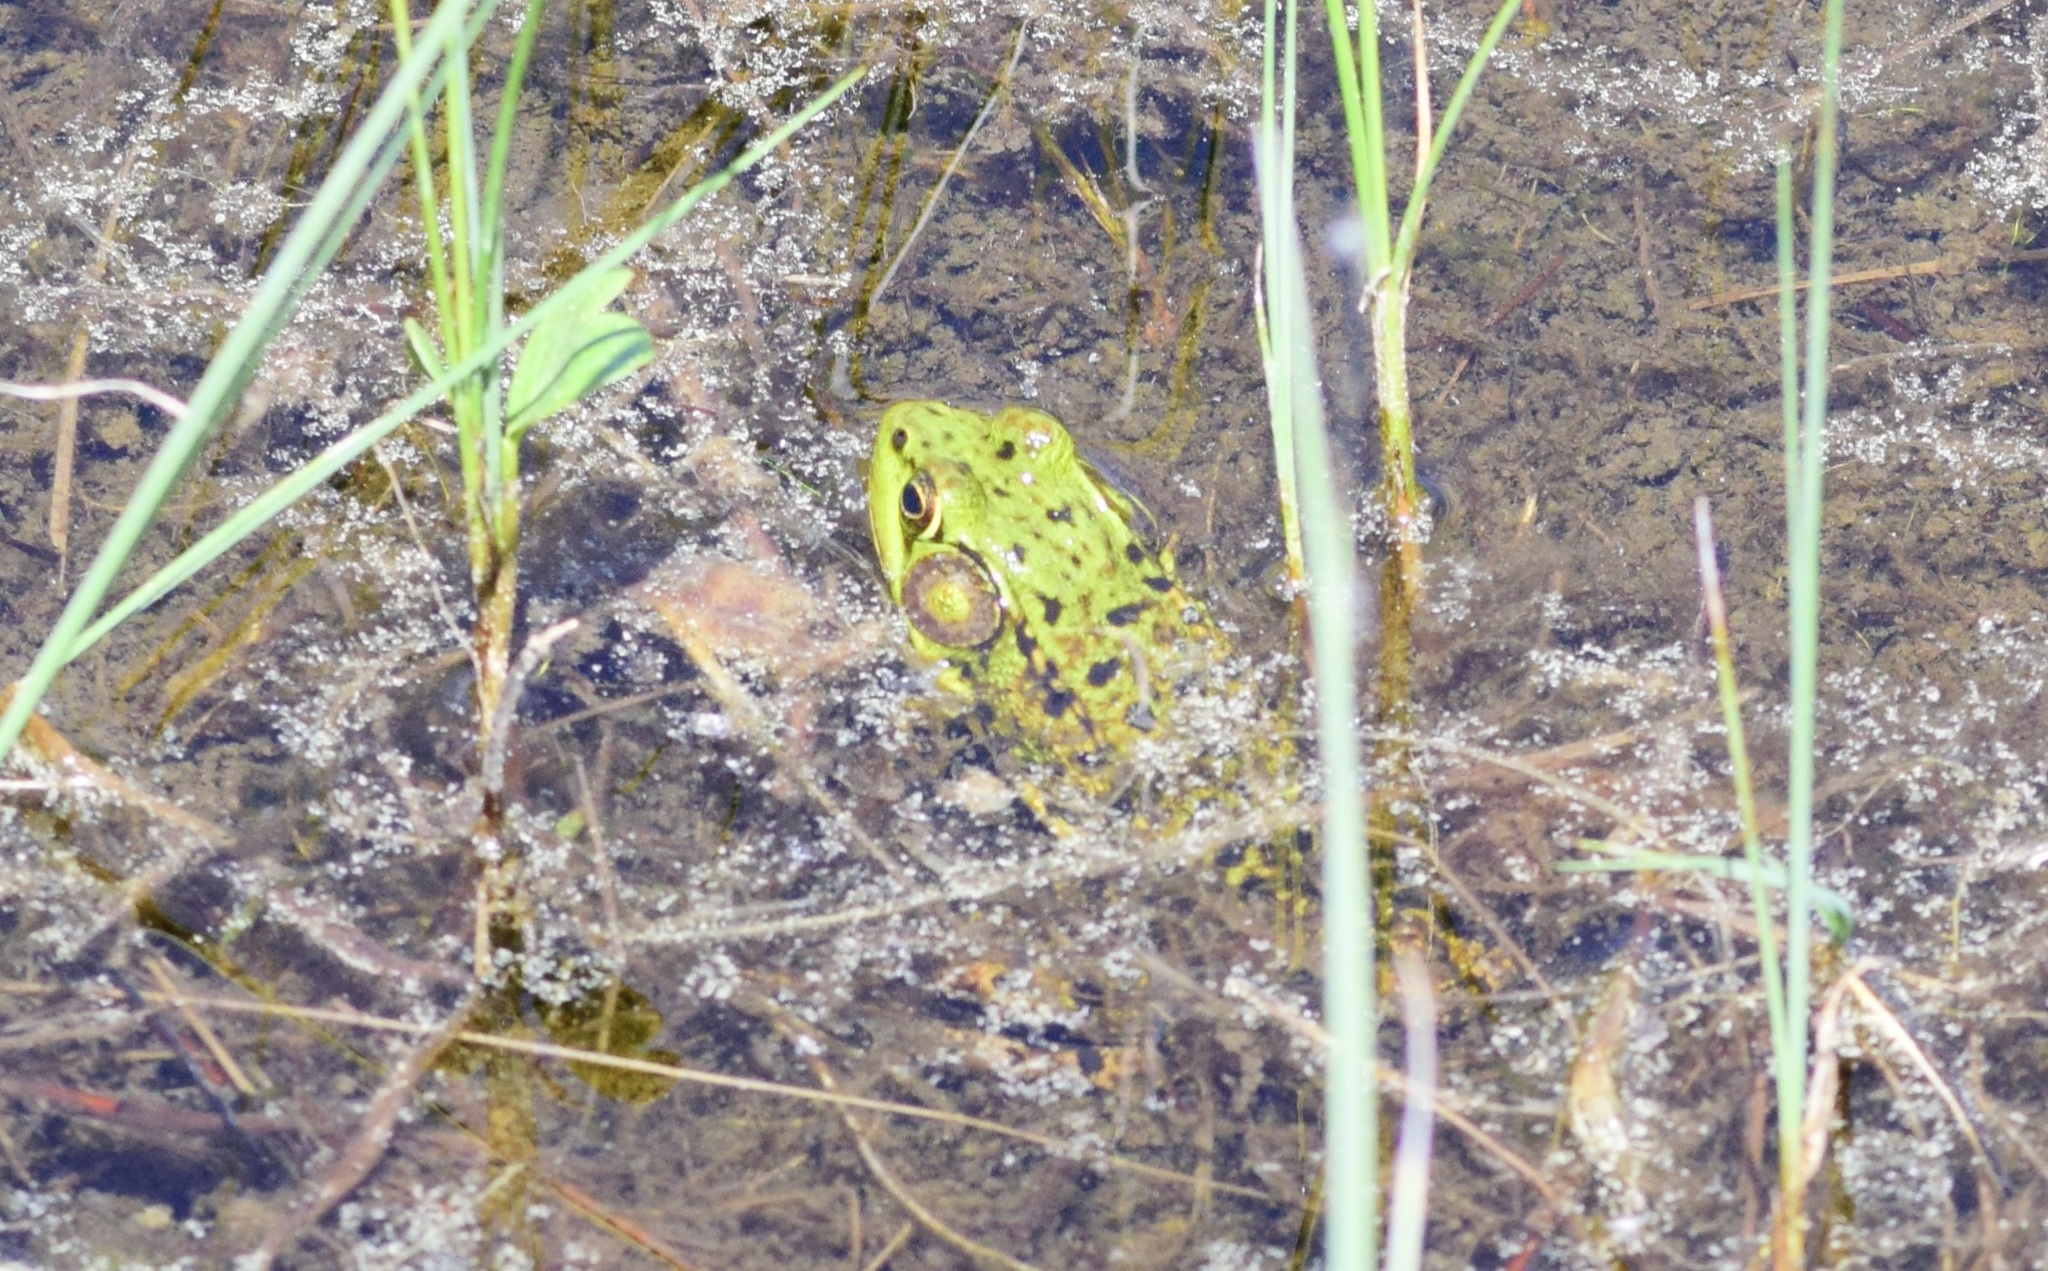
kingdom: Animalia
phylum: Chordata
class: Amphibia
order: Anura
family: Ranidae
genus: Lithobates
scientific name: Lithobates clamitans
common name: Green frog
